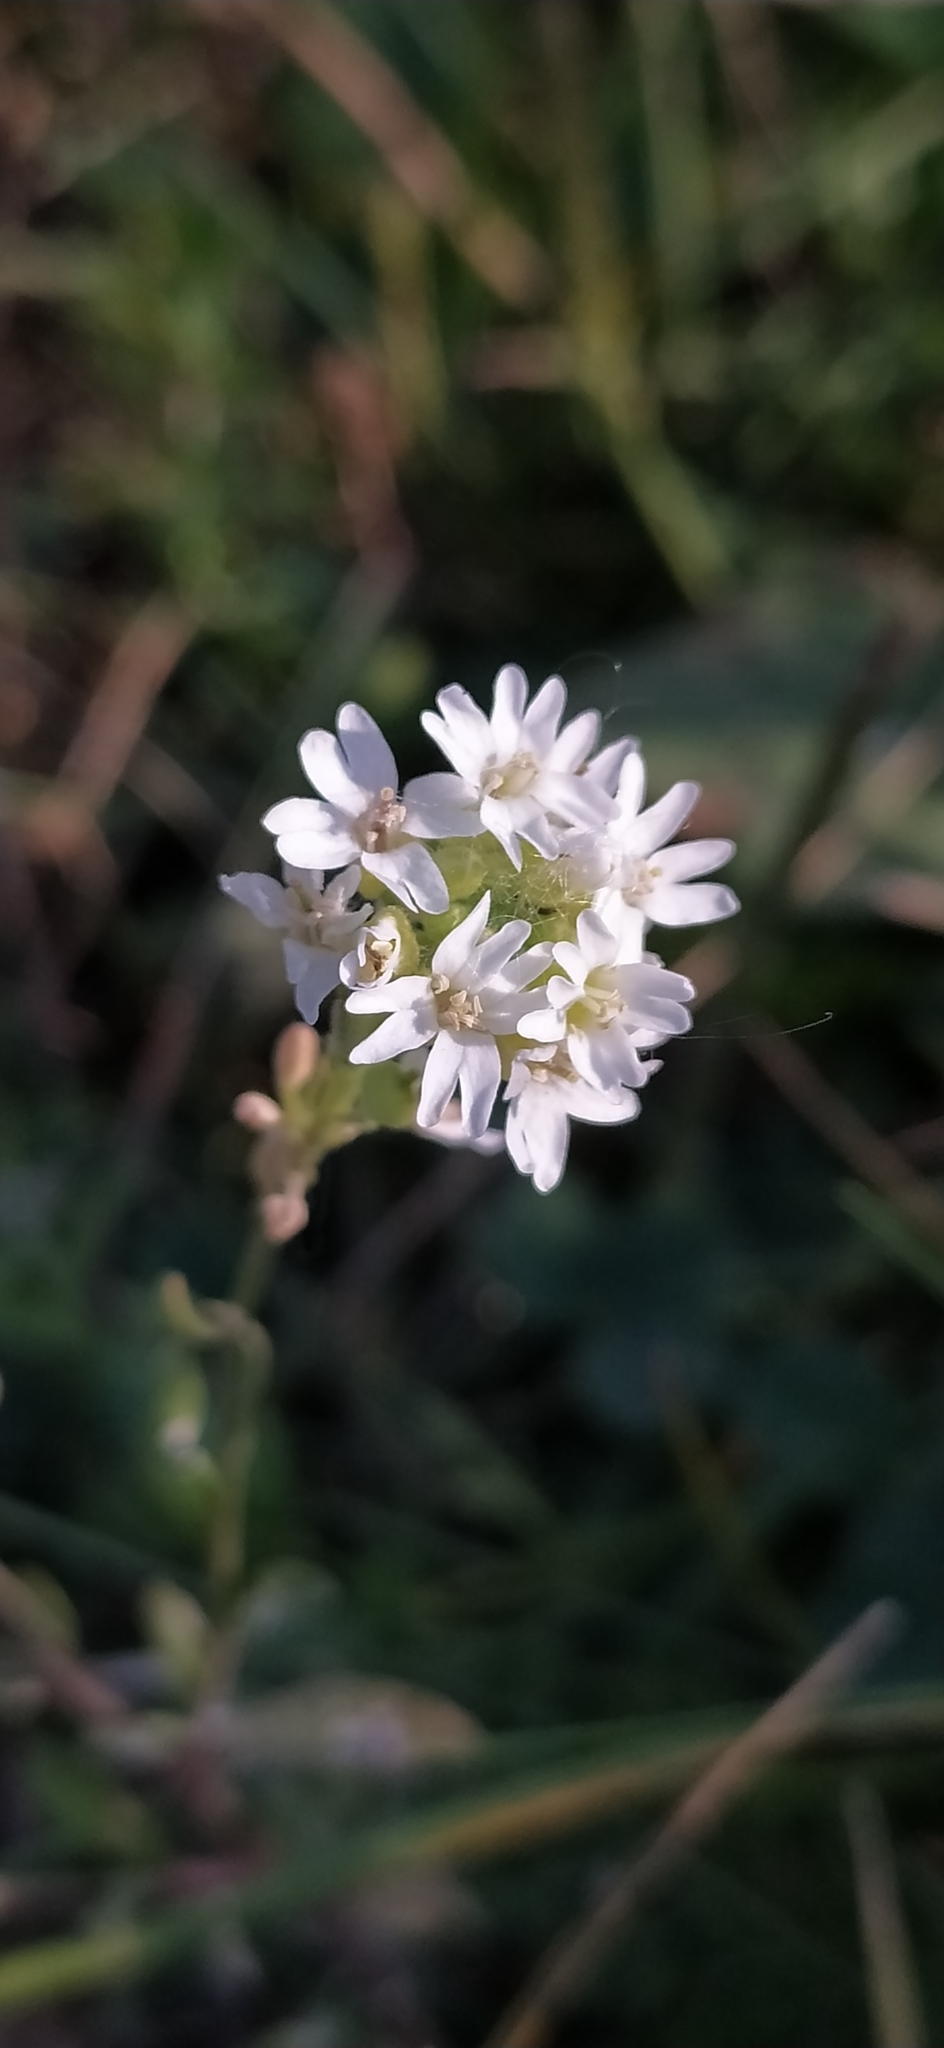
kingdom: Plantae
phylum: Tracheophyta
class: Magnoliopsida
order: Brassicales
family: Brassicaceae
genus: Berteroa
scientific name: Berteroa incana
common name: Hoary alison
